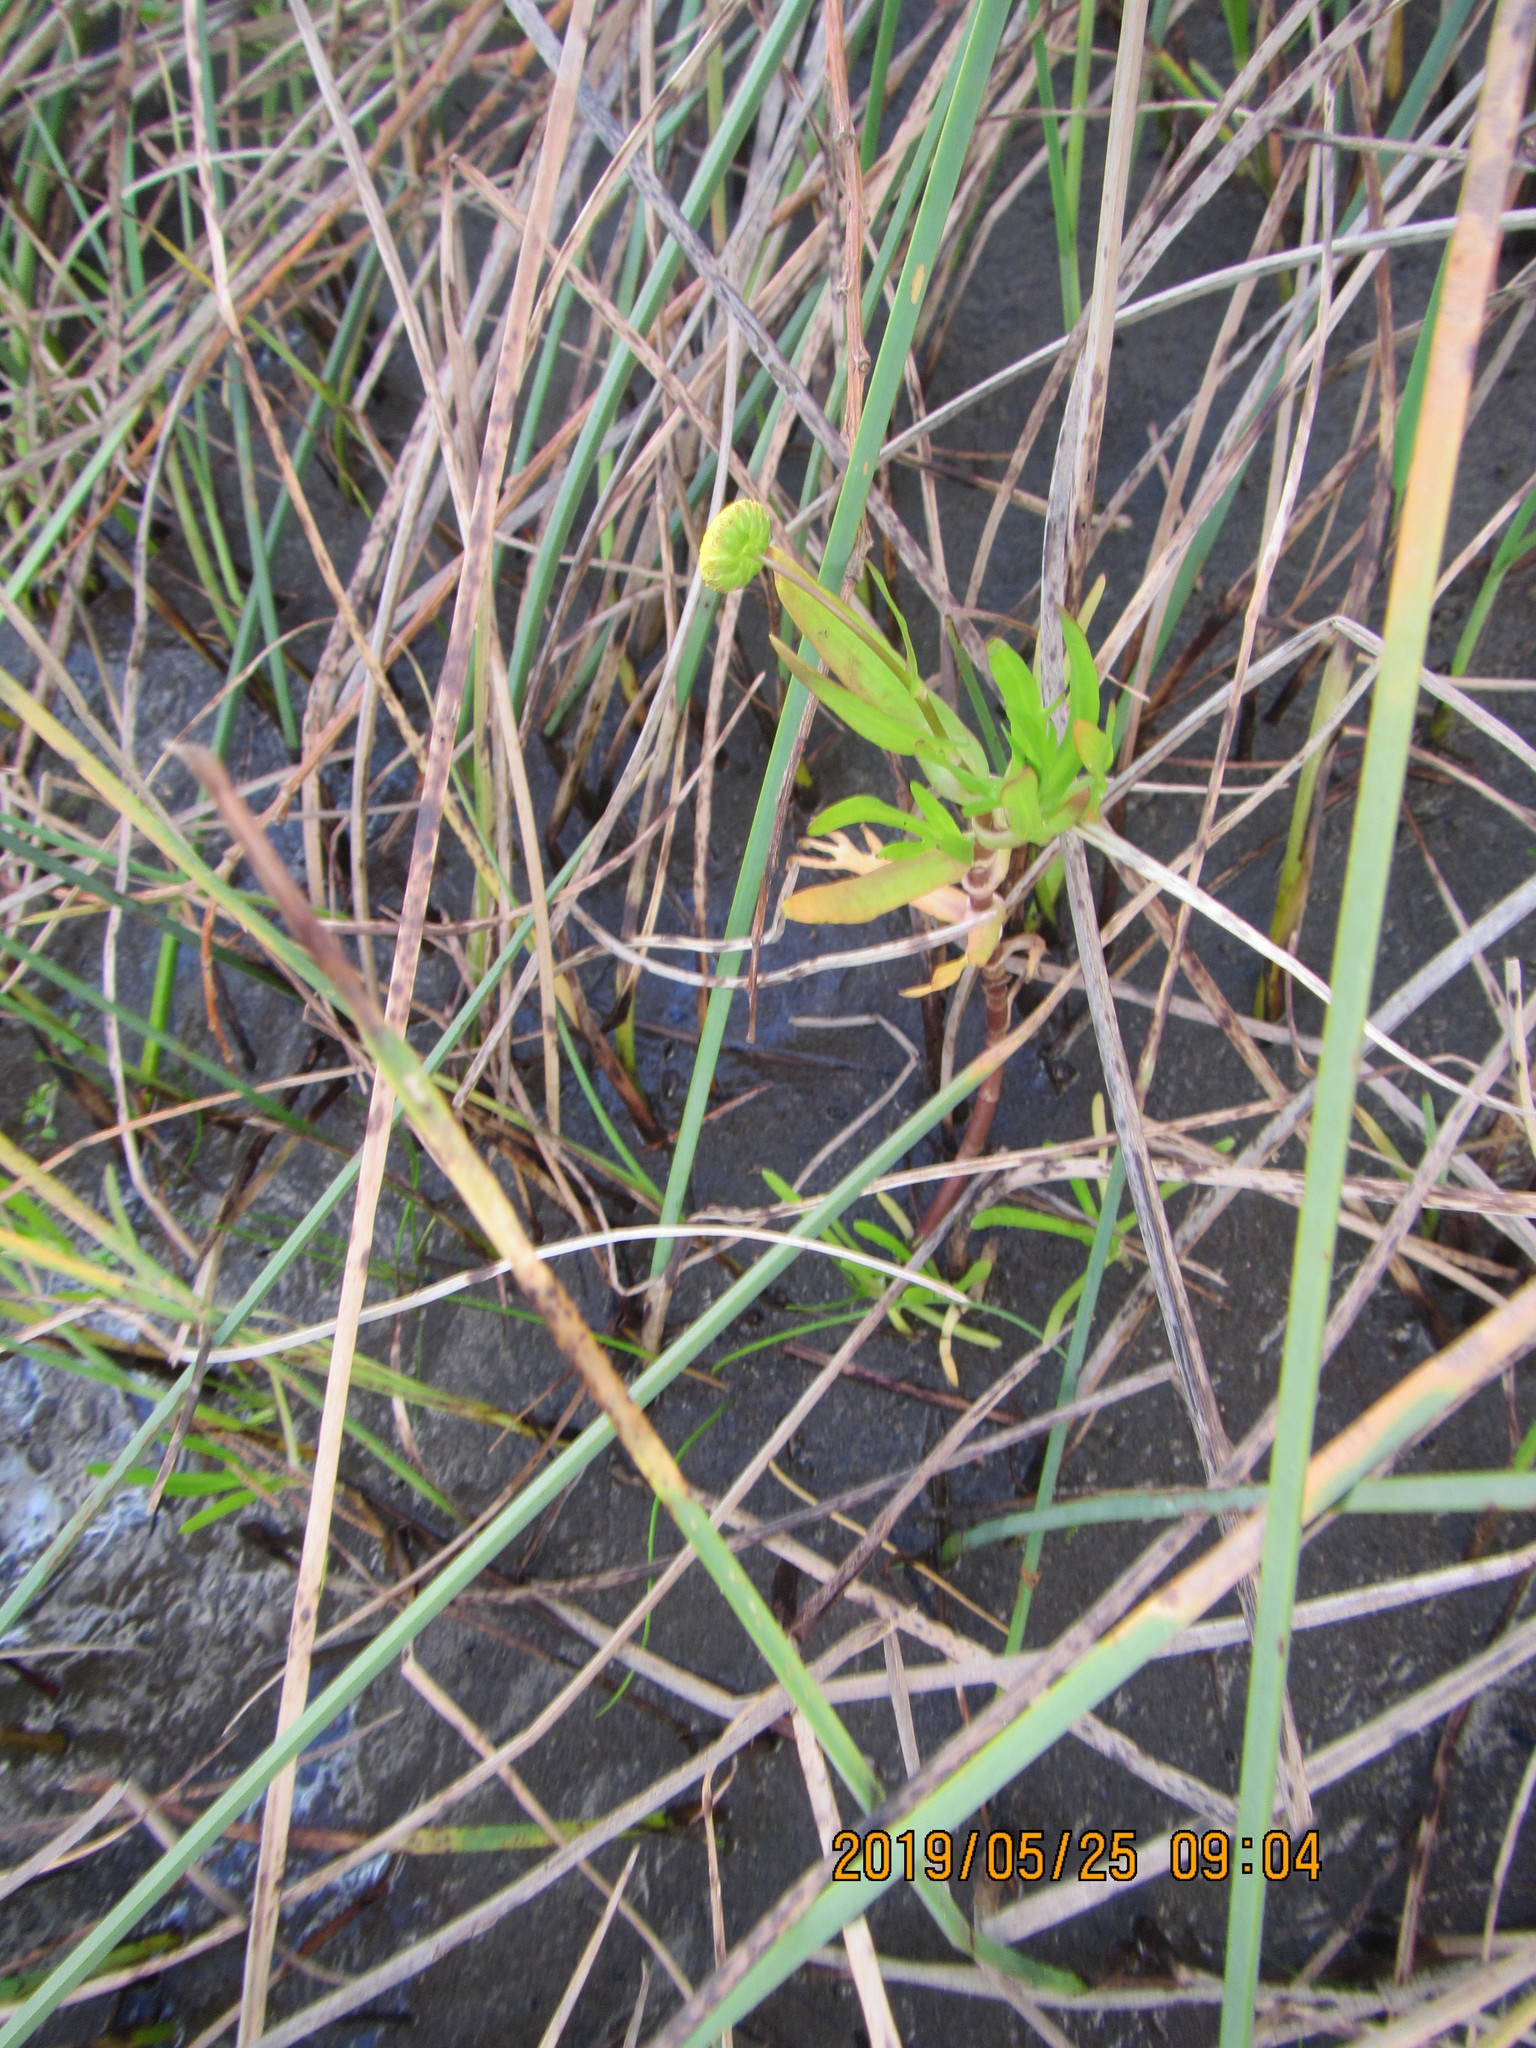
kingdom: Plantae
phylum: Tracheophyta
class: Magnoliopsida
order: Asterales
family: Asteraceae
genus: Cotula
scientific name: Cotula coronopifolia
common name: Buttonweed
